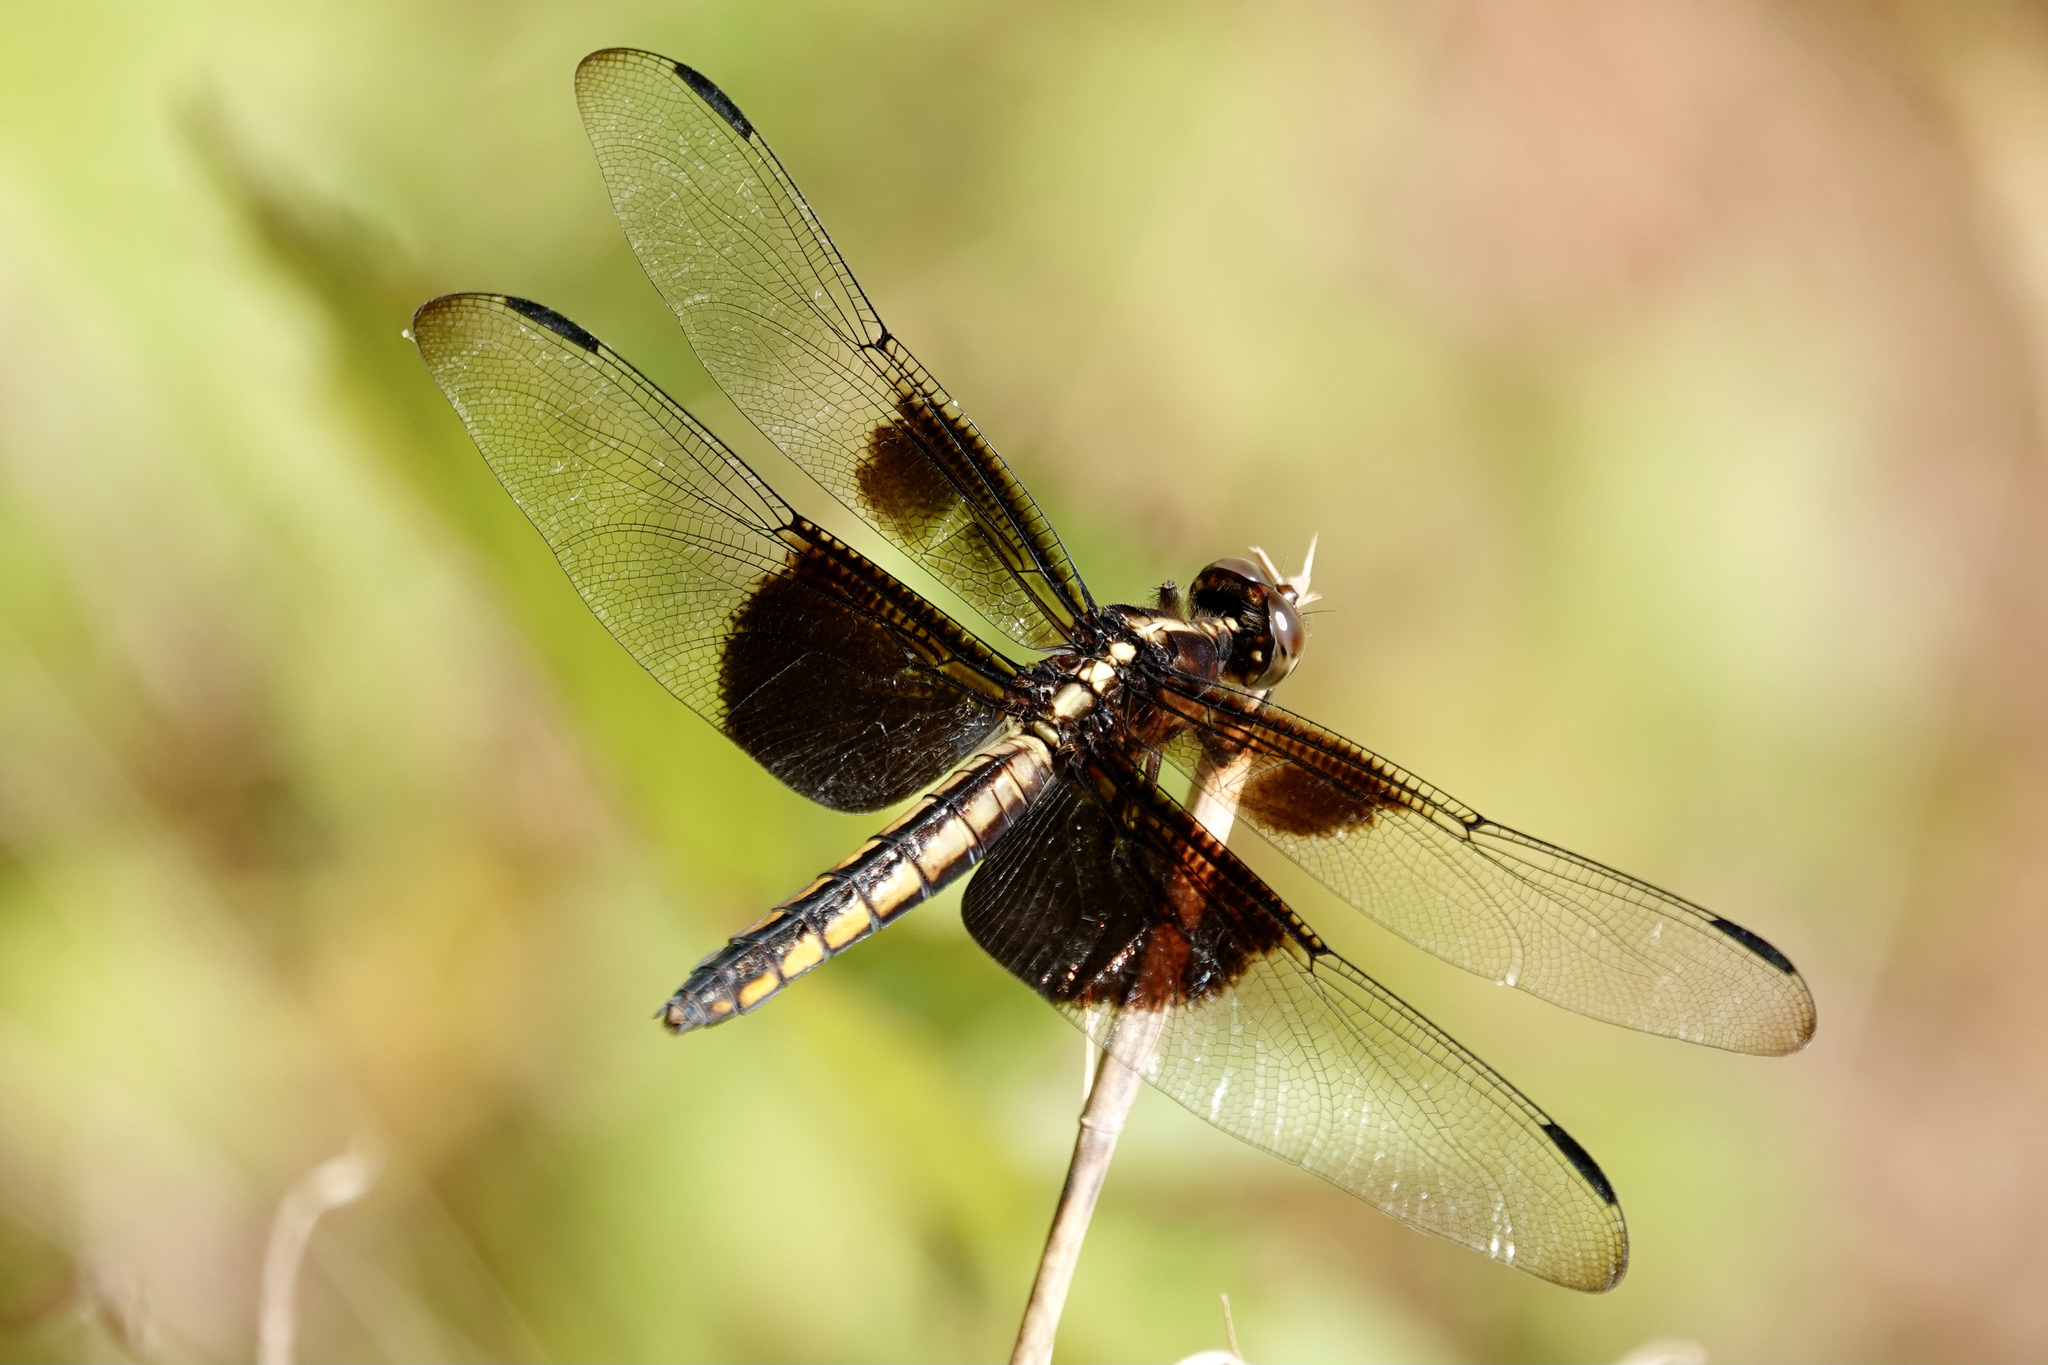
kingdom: Animalia
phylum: Arthropoda
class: Insecta
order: Odonata
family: Libellulidae
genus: Libellula
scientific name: Libellula luctuosa
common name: Widow skimmer
